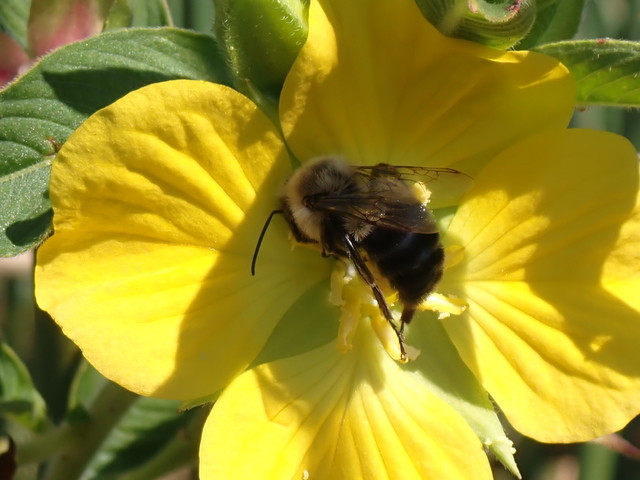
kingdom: Animalia
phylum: Arthropoda
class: Insecta
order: Hymenoptera
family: Apidae
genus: Bombus
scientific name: Bombus impatiens
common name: Common eastern bumble bee
